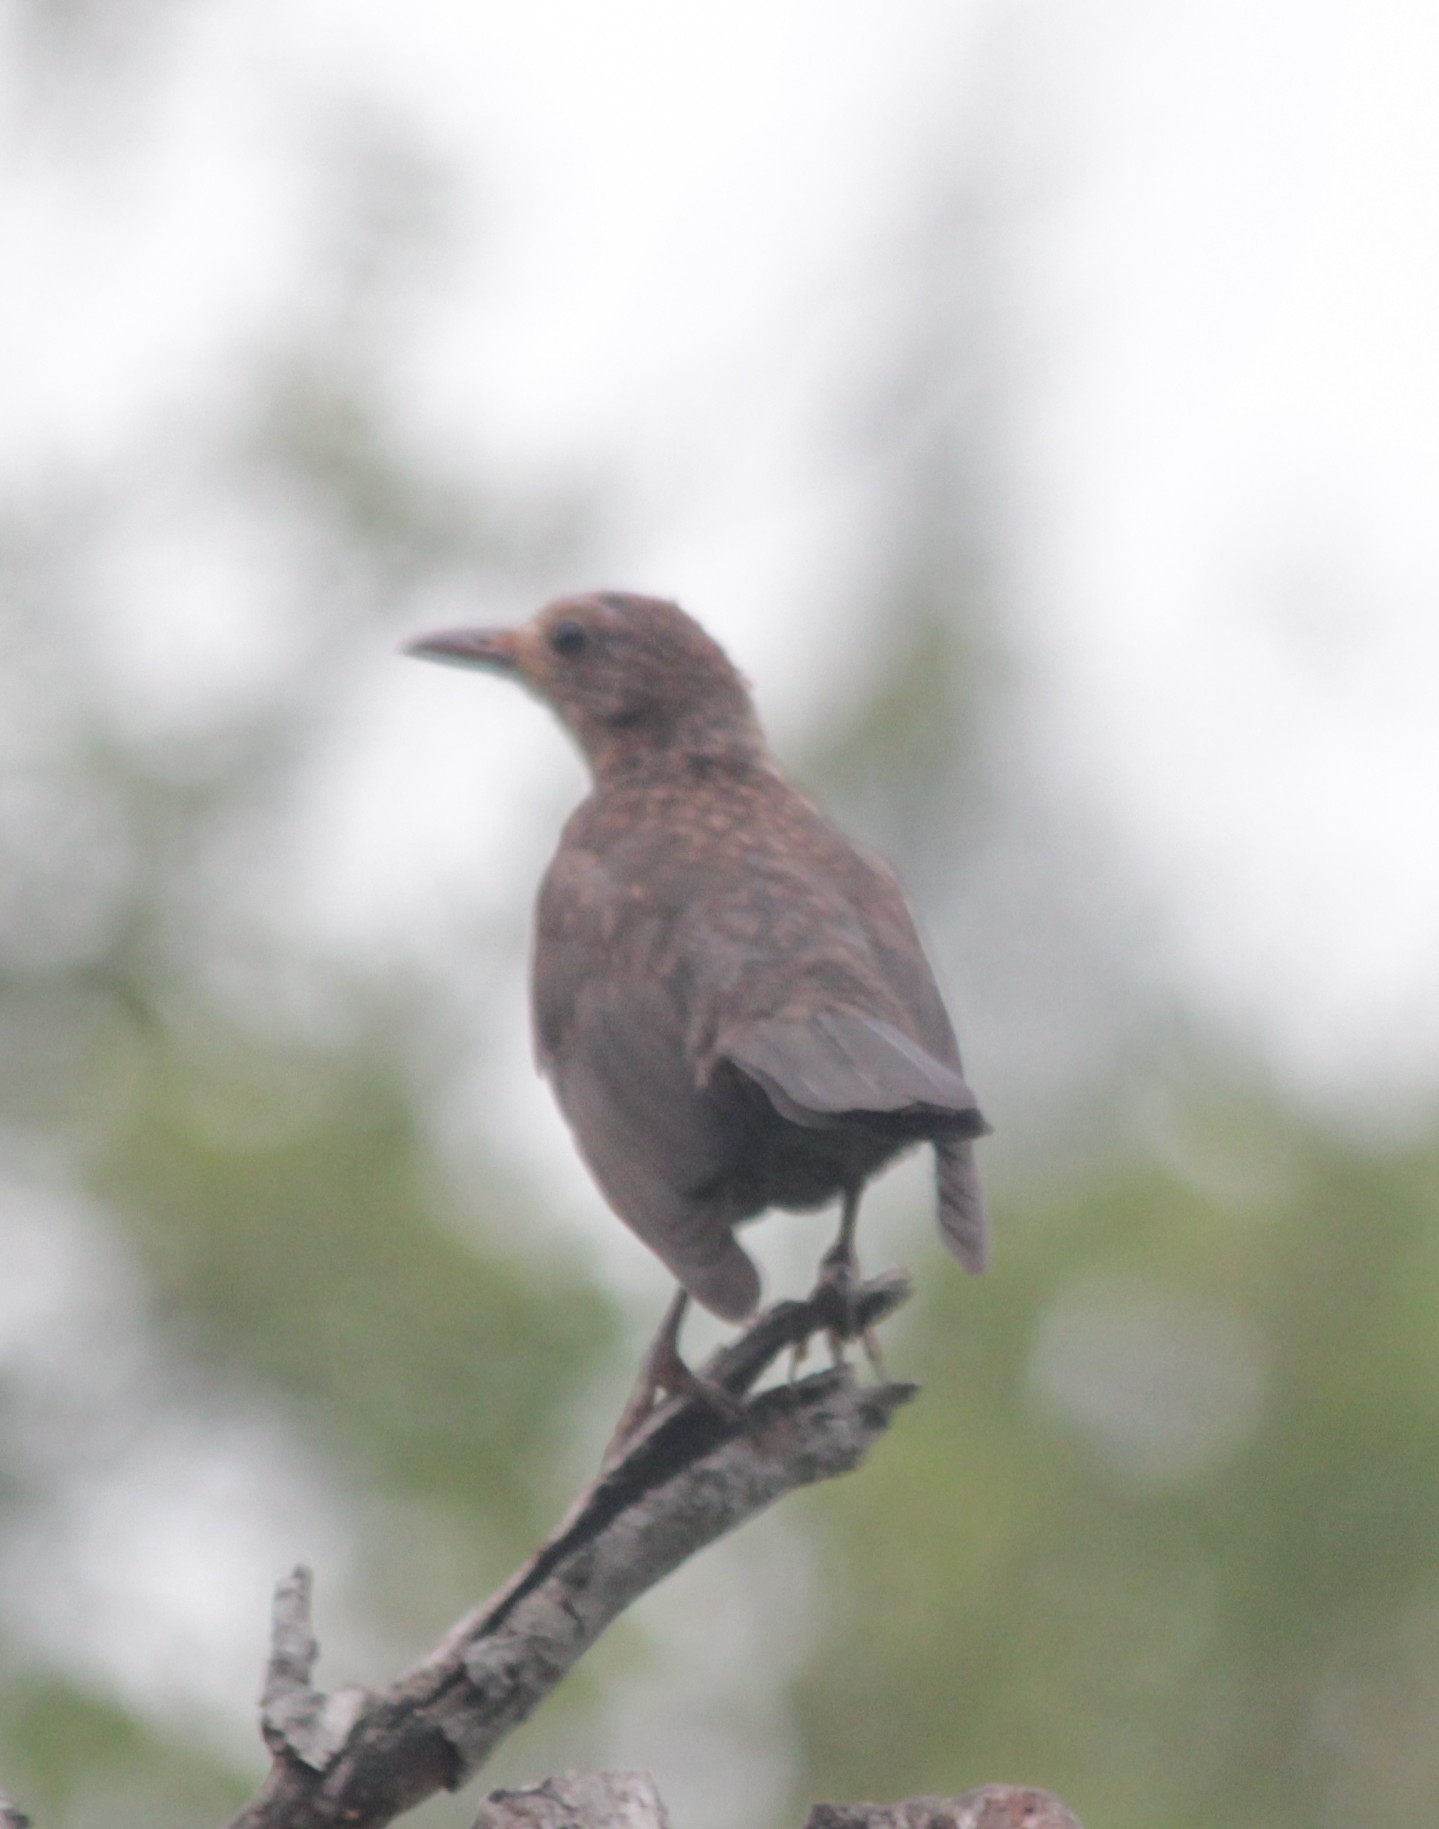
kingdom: Animalia
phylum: Chordata
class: Aves
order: Passeriformes
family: Turdidae
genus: Turdus
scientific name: Turdus merula
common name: Common blackbird
